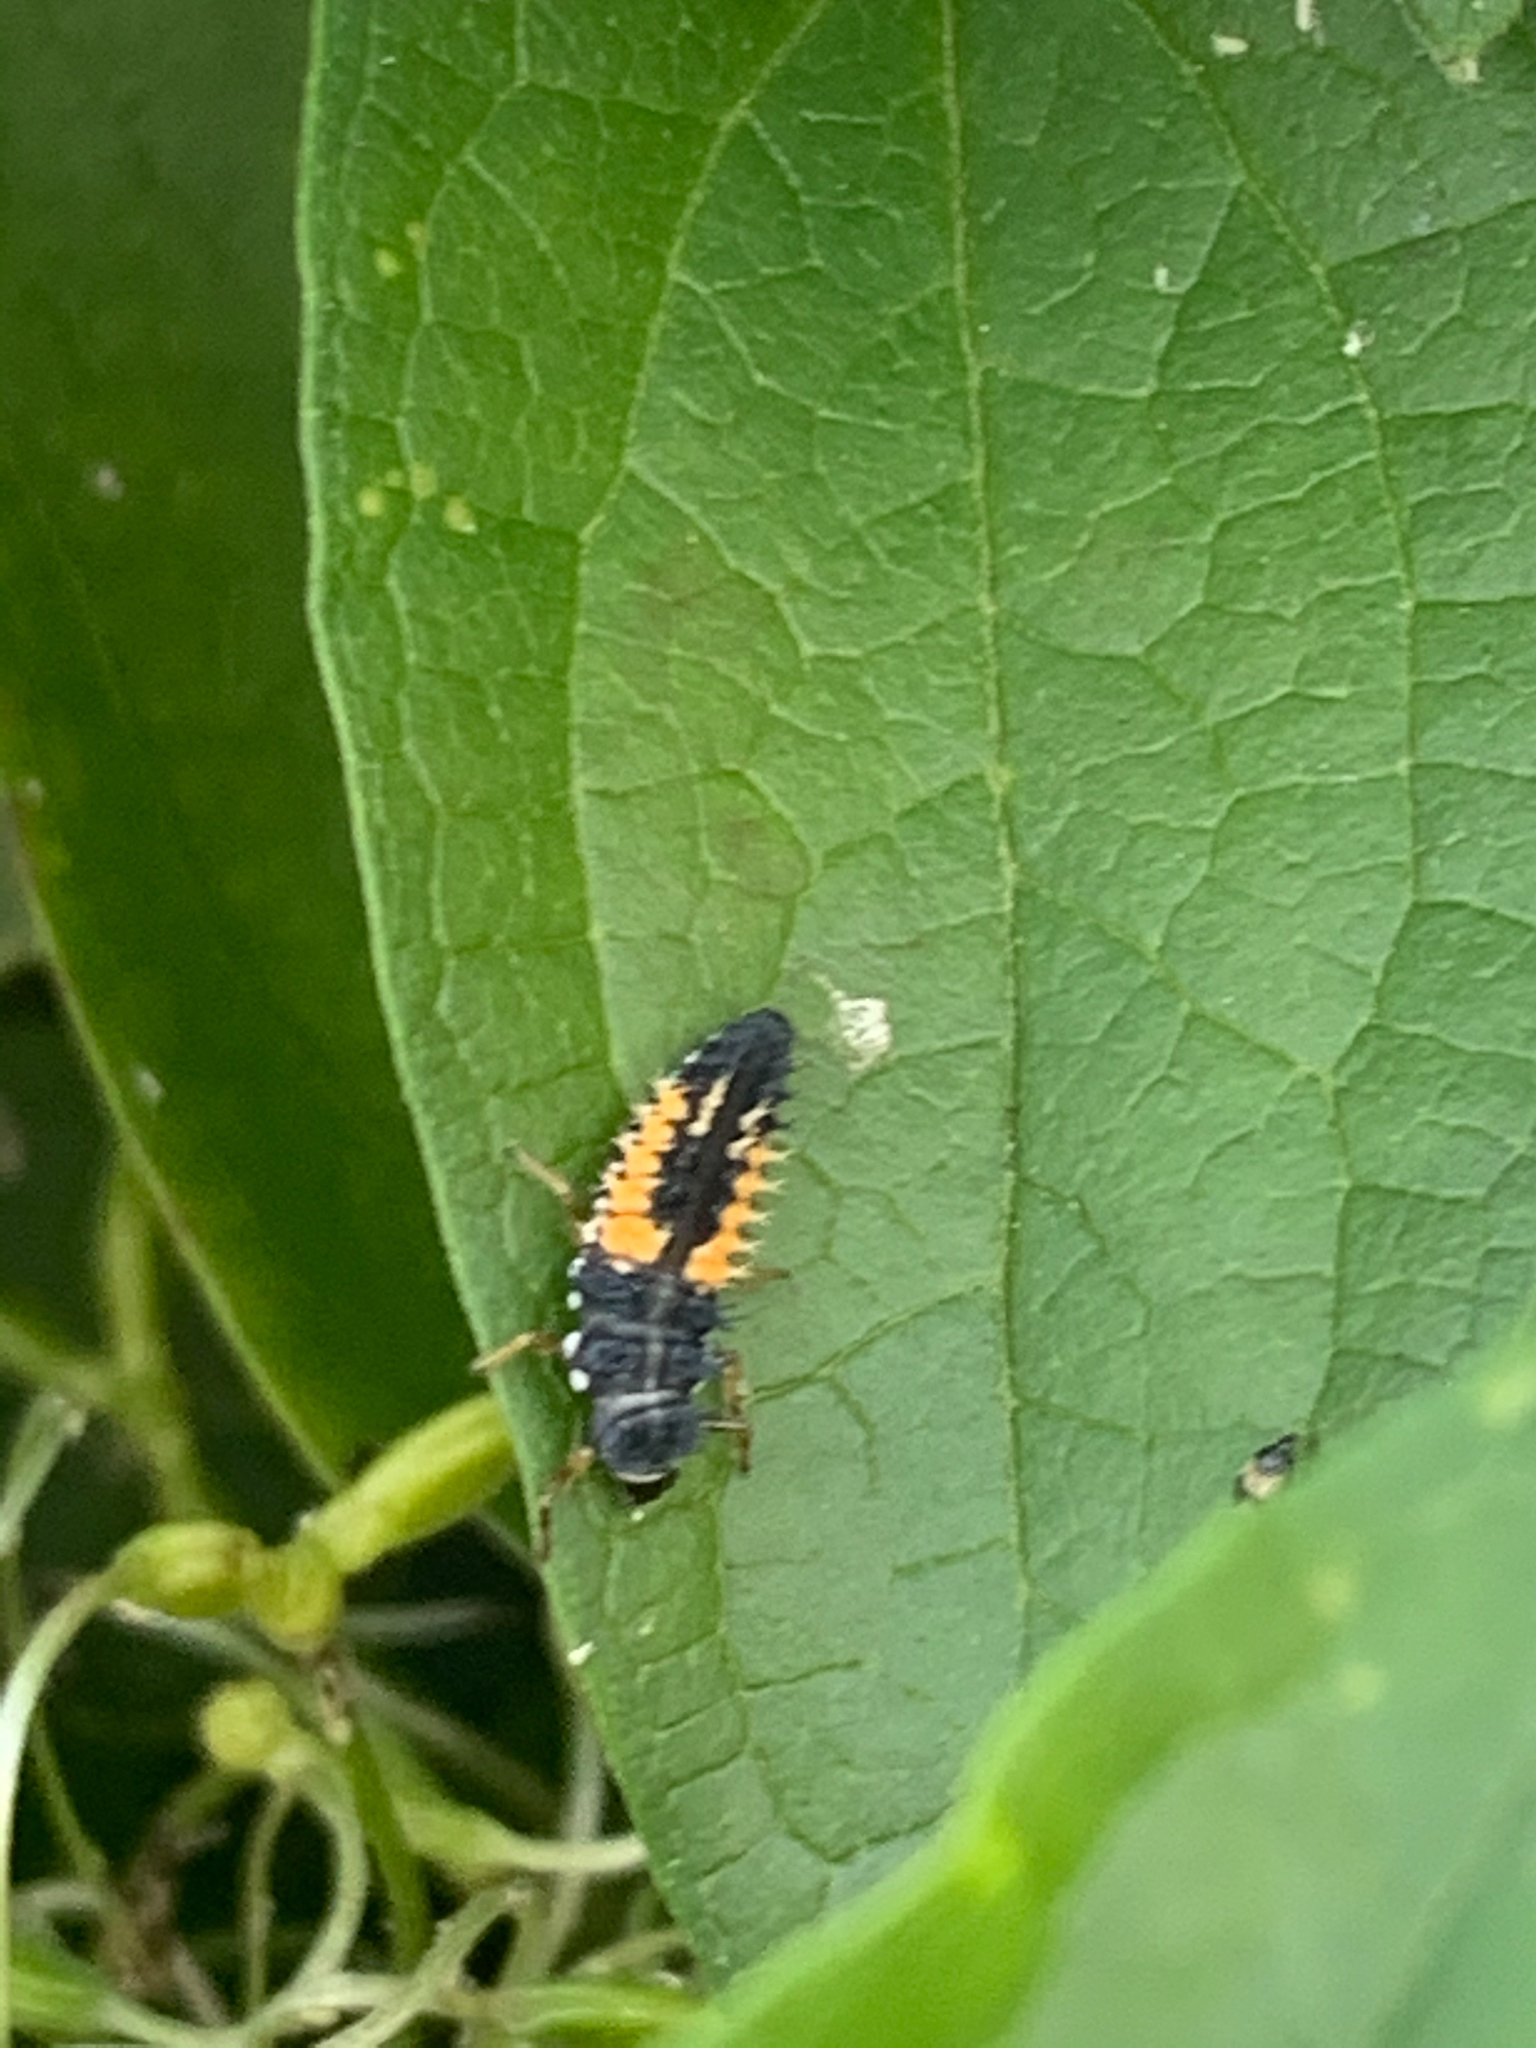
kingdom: Animalia
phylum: Arthropoda
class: Insecta
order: Coleoptera
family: Coccinellidae
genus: Harmonia
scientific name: Harmonia axyridis
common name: Harlequin ladybird
